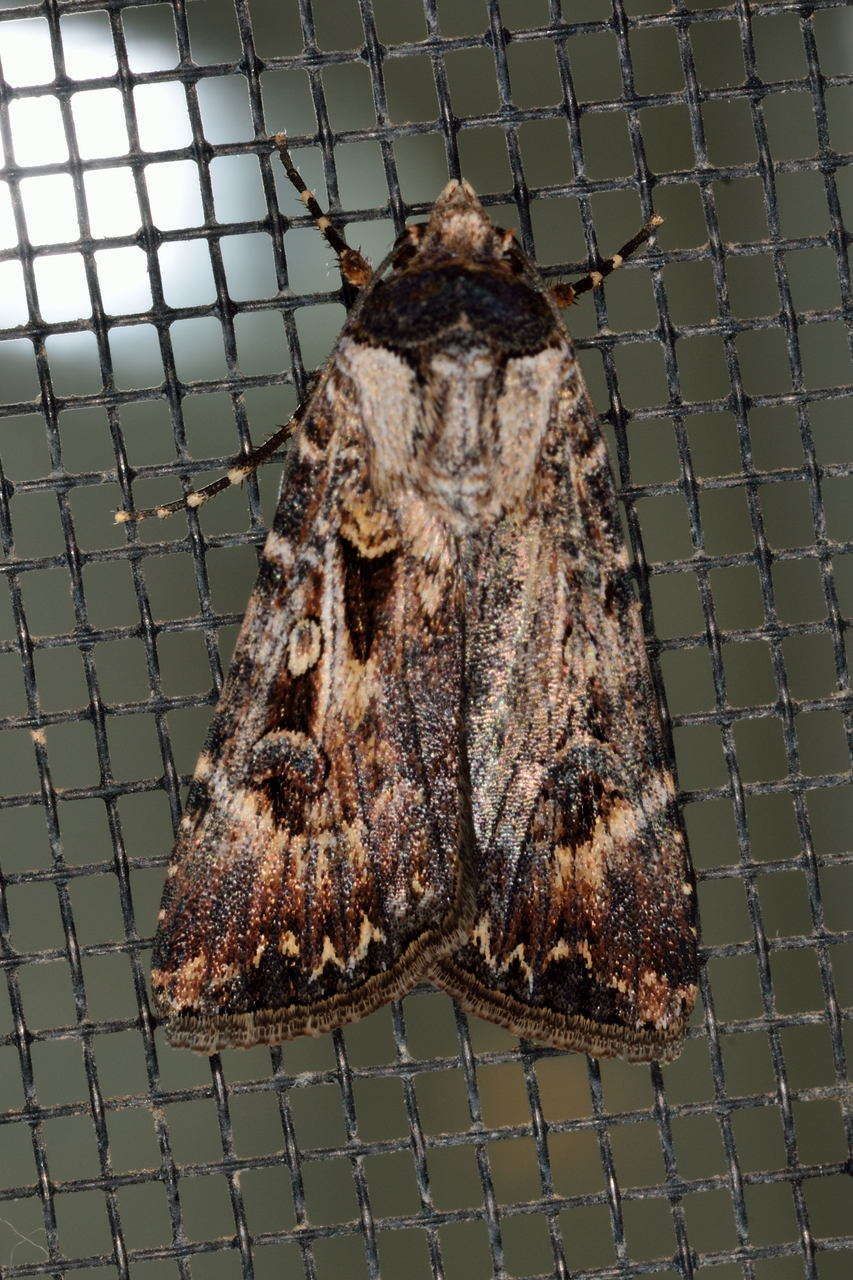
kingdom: Animalia
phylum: Arthropoda
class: Insecta
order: Lepidoptera
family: Noctuidae
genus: Agrotis
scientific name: Agrotis munda
